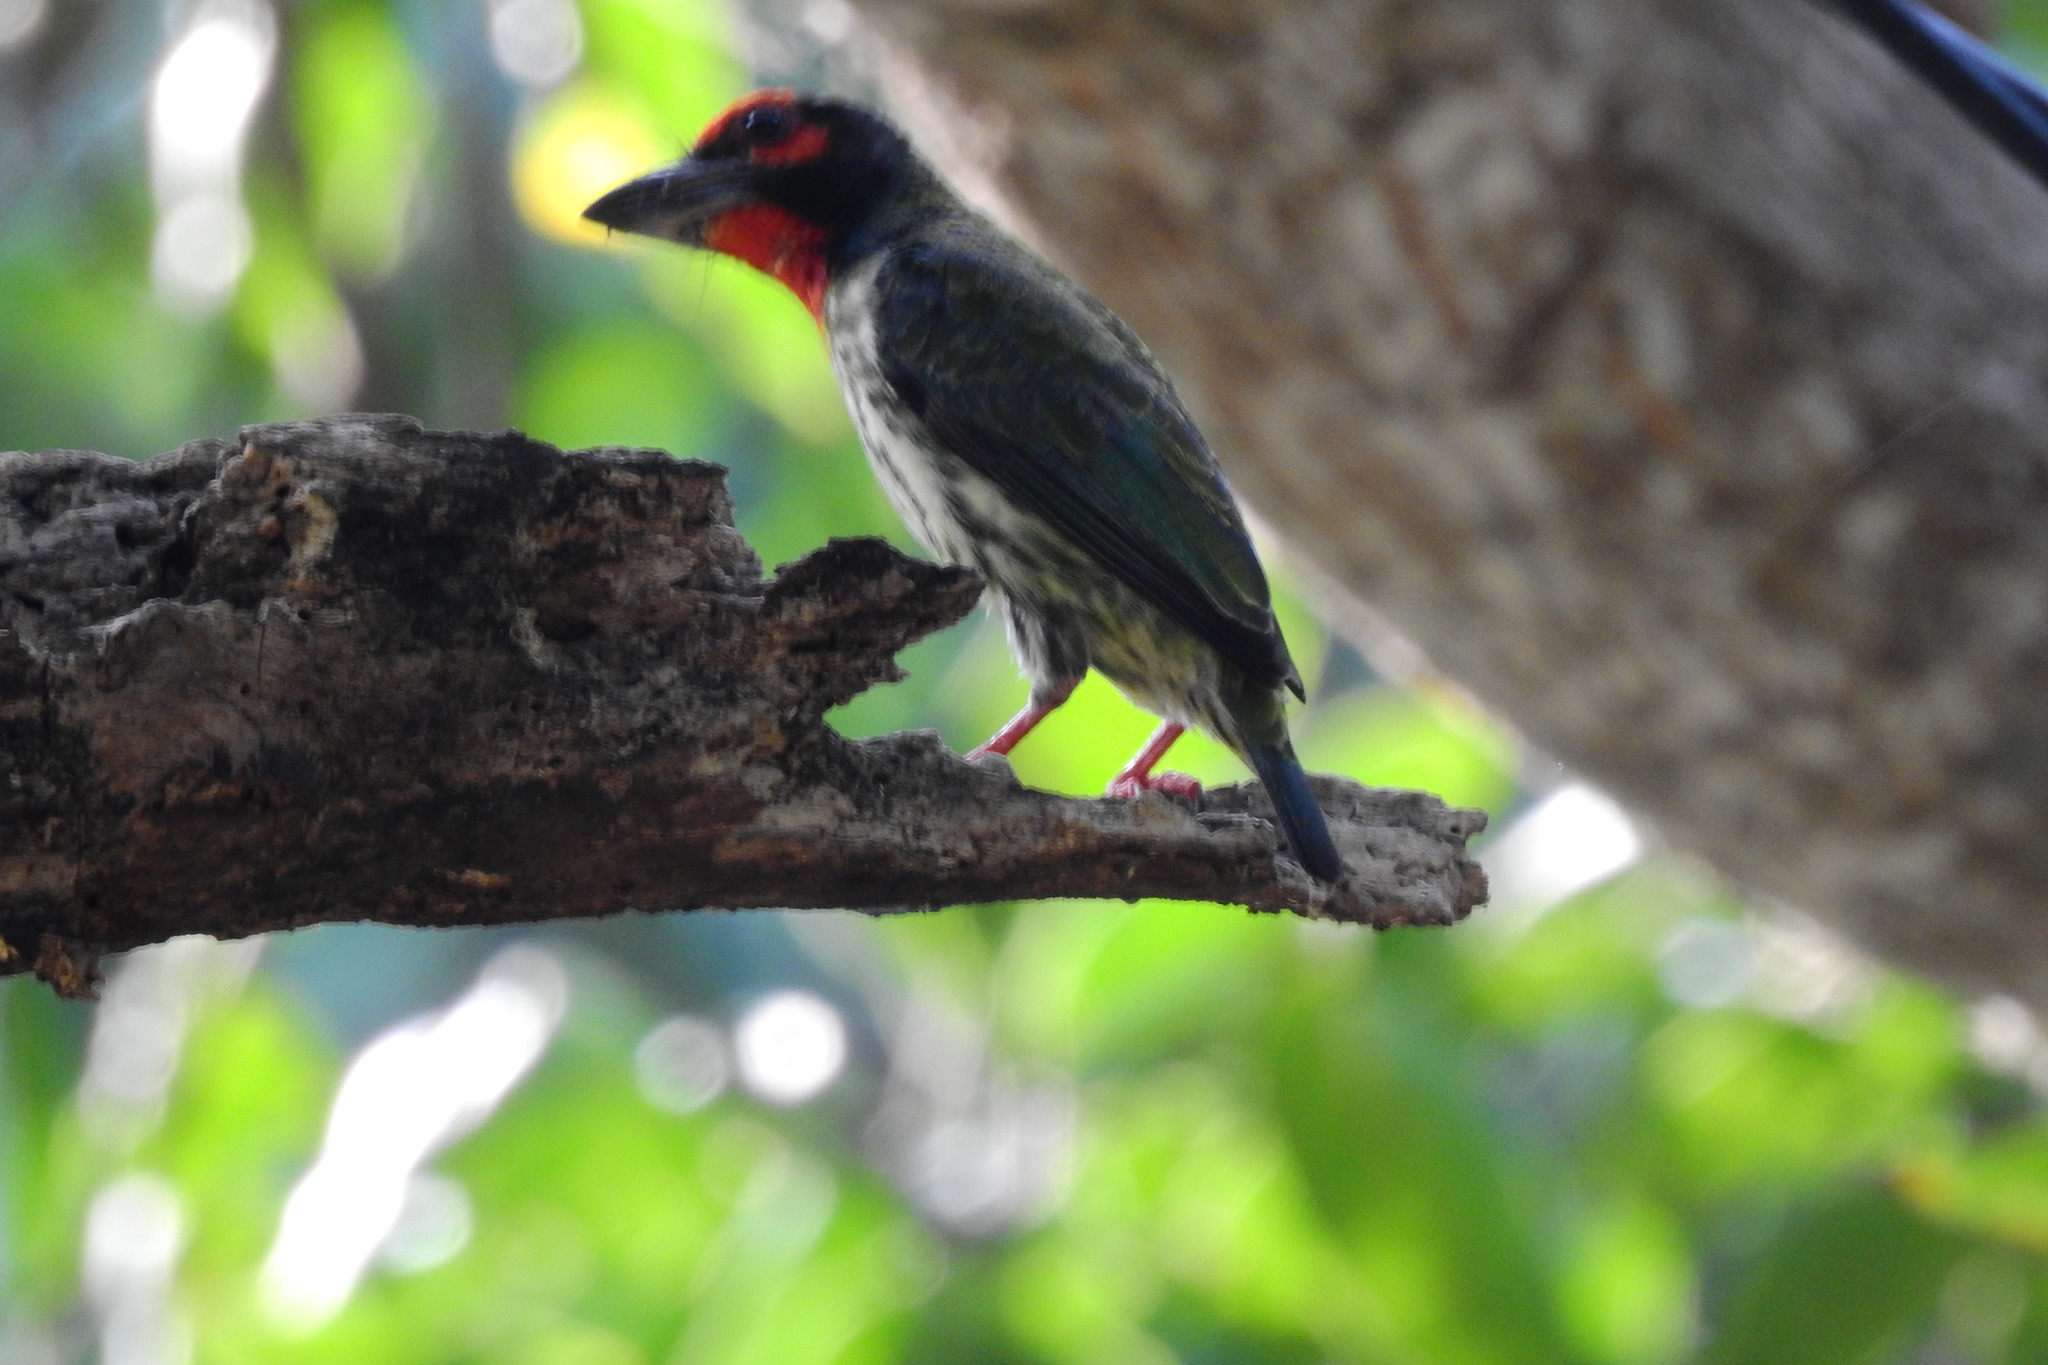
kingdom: Animalia
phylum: Chordata
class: Aves
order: Piciformes
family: Megalaimidae
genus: Psilopogon
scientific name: Psilopogon haemacephalus
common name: Coppersmith barbet
